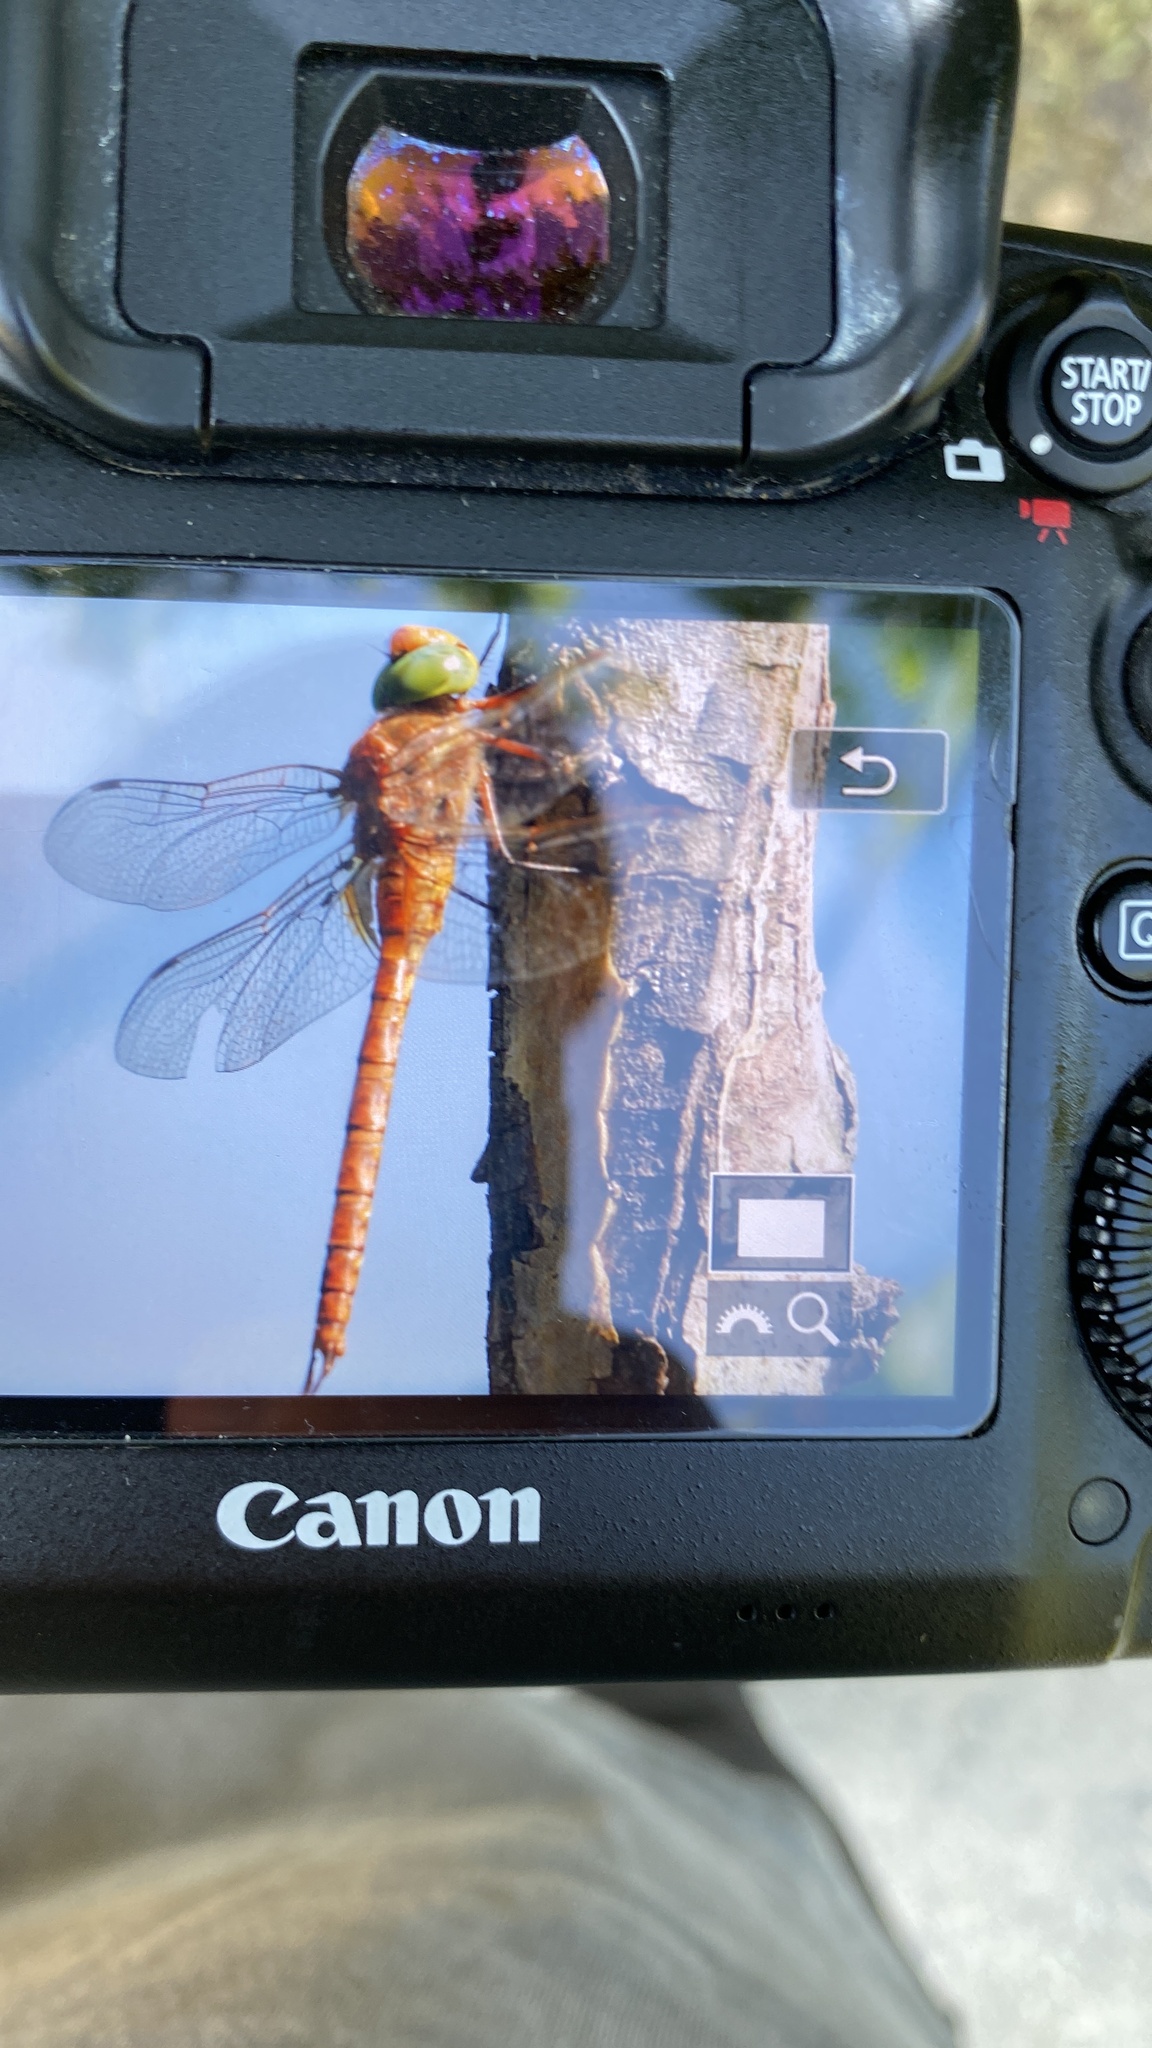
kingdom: Animalia
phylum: Arthropoda
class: Insecta
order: Odonata
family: Aeshnidae
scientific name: Aeshnidae
